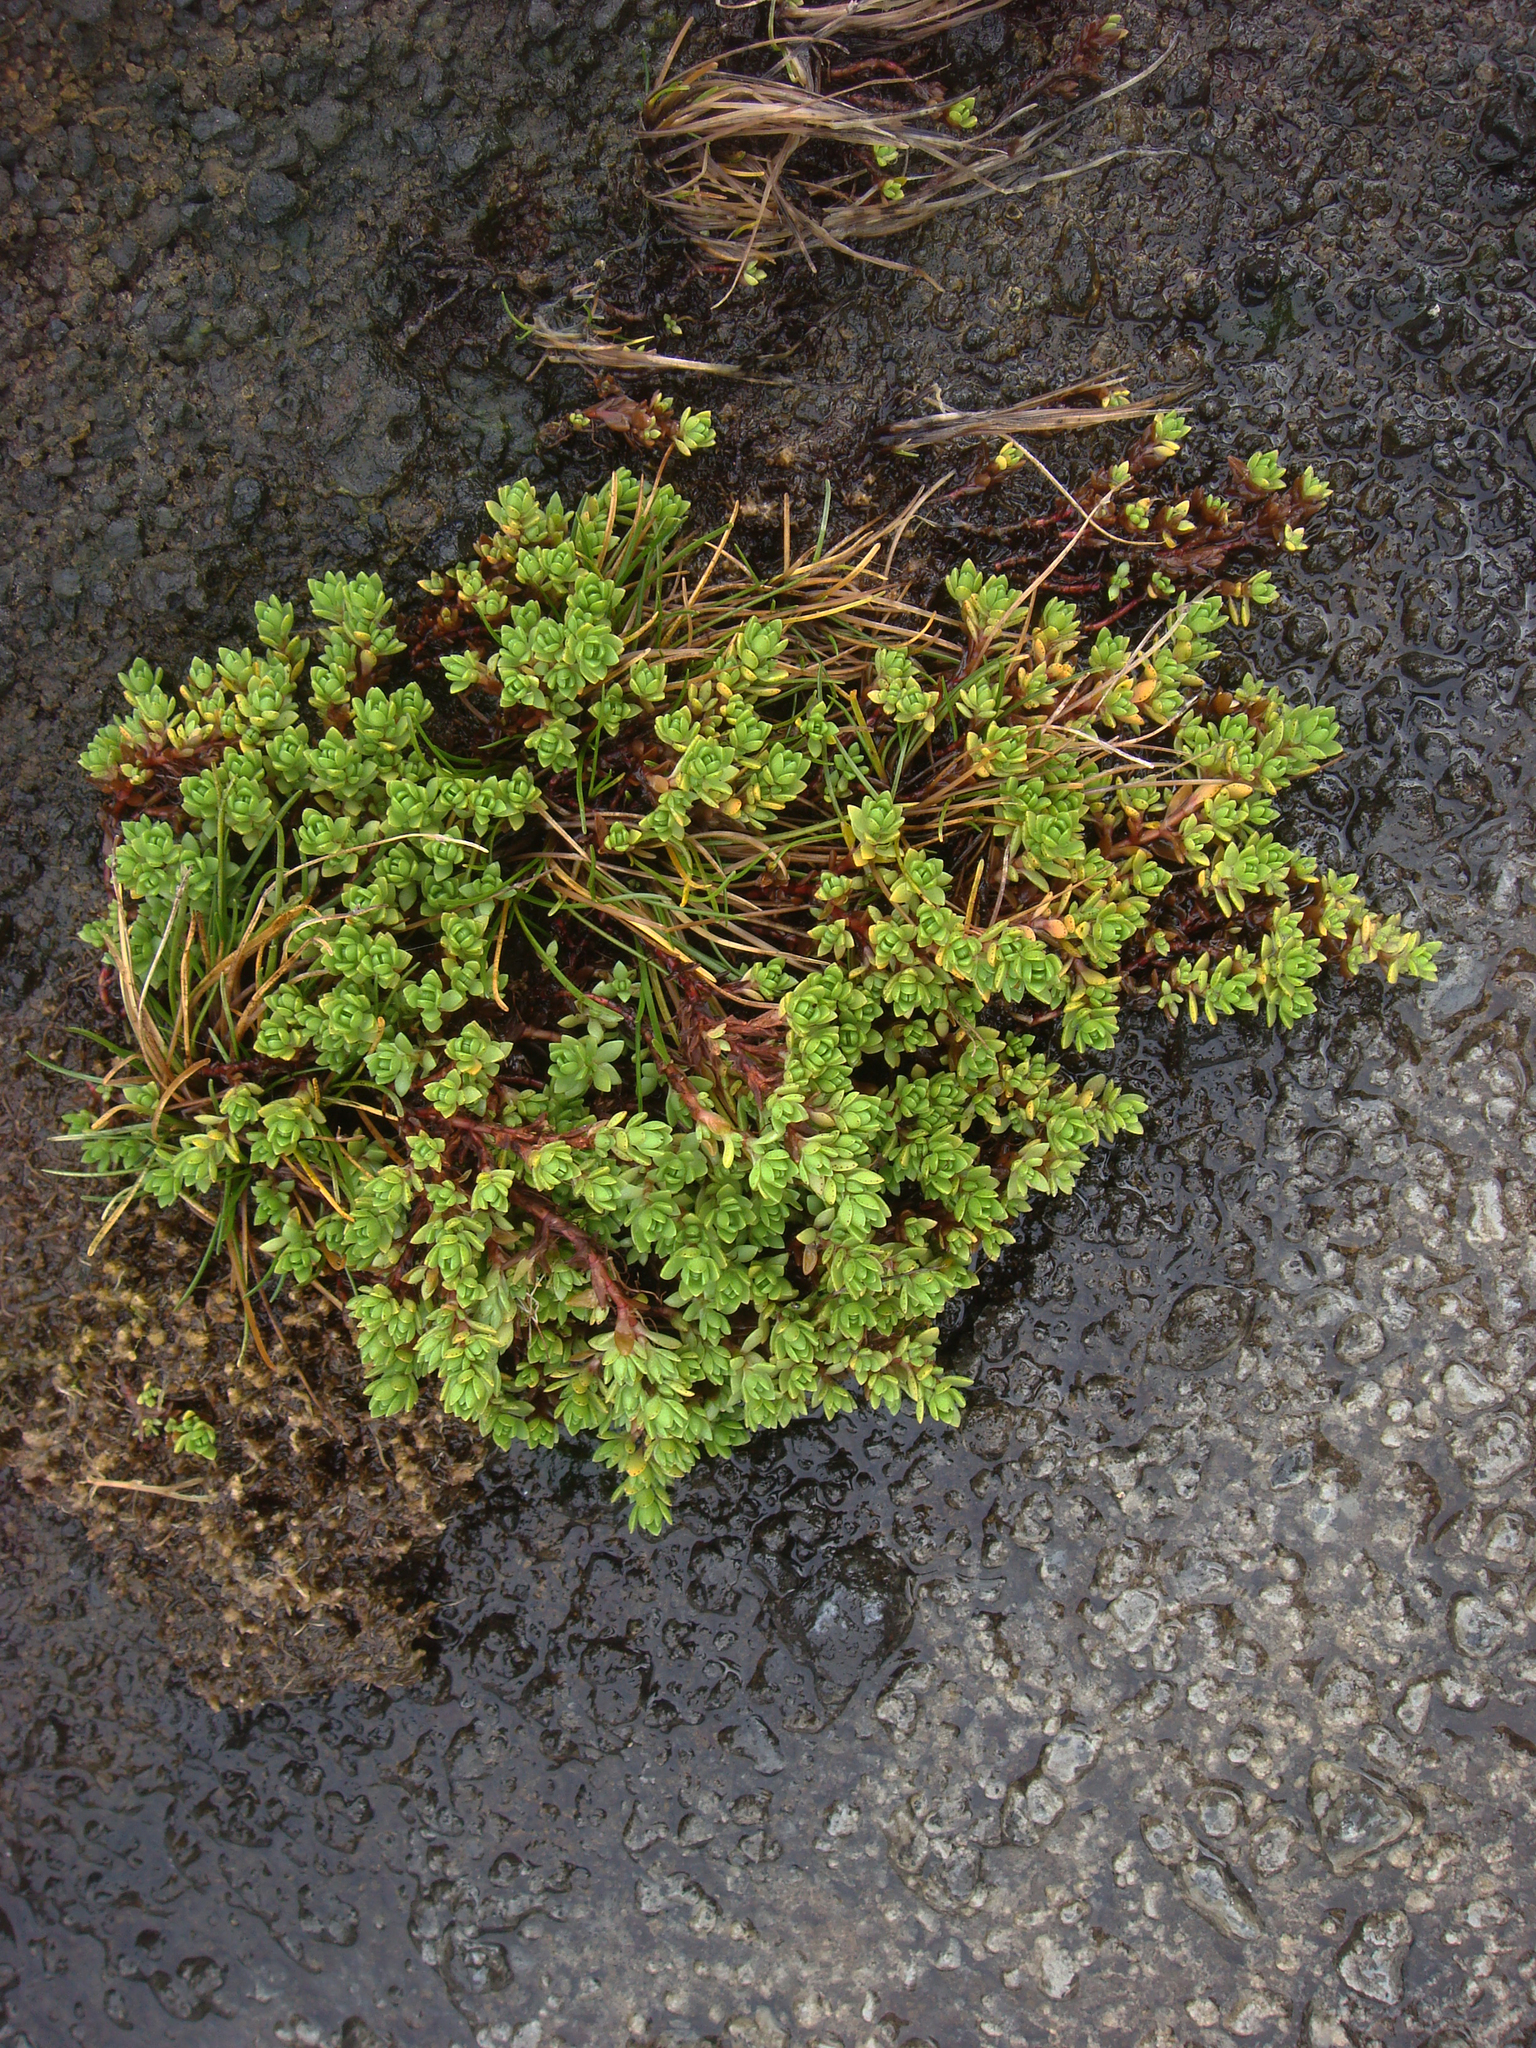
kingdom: Plantae
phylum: Tracheophyta
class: Magnoliopsida
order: Saxifragales
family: Crassulaceae
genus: Crassula
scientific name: Crassula moschata
